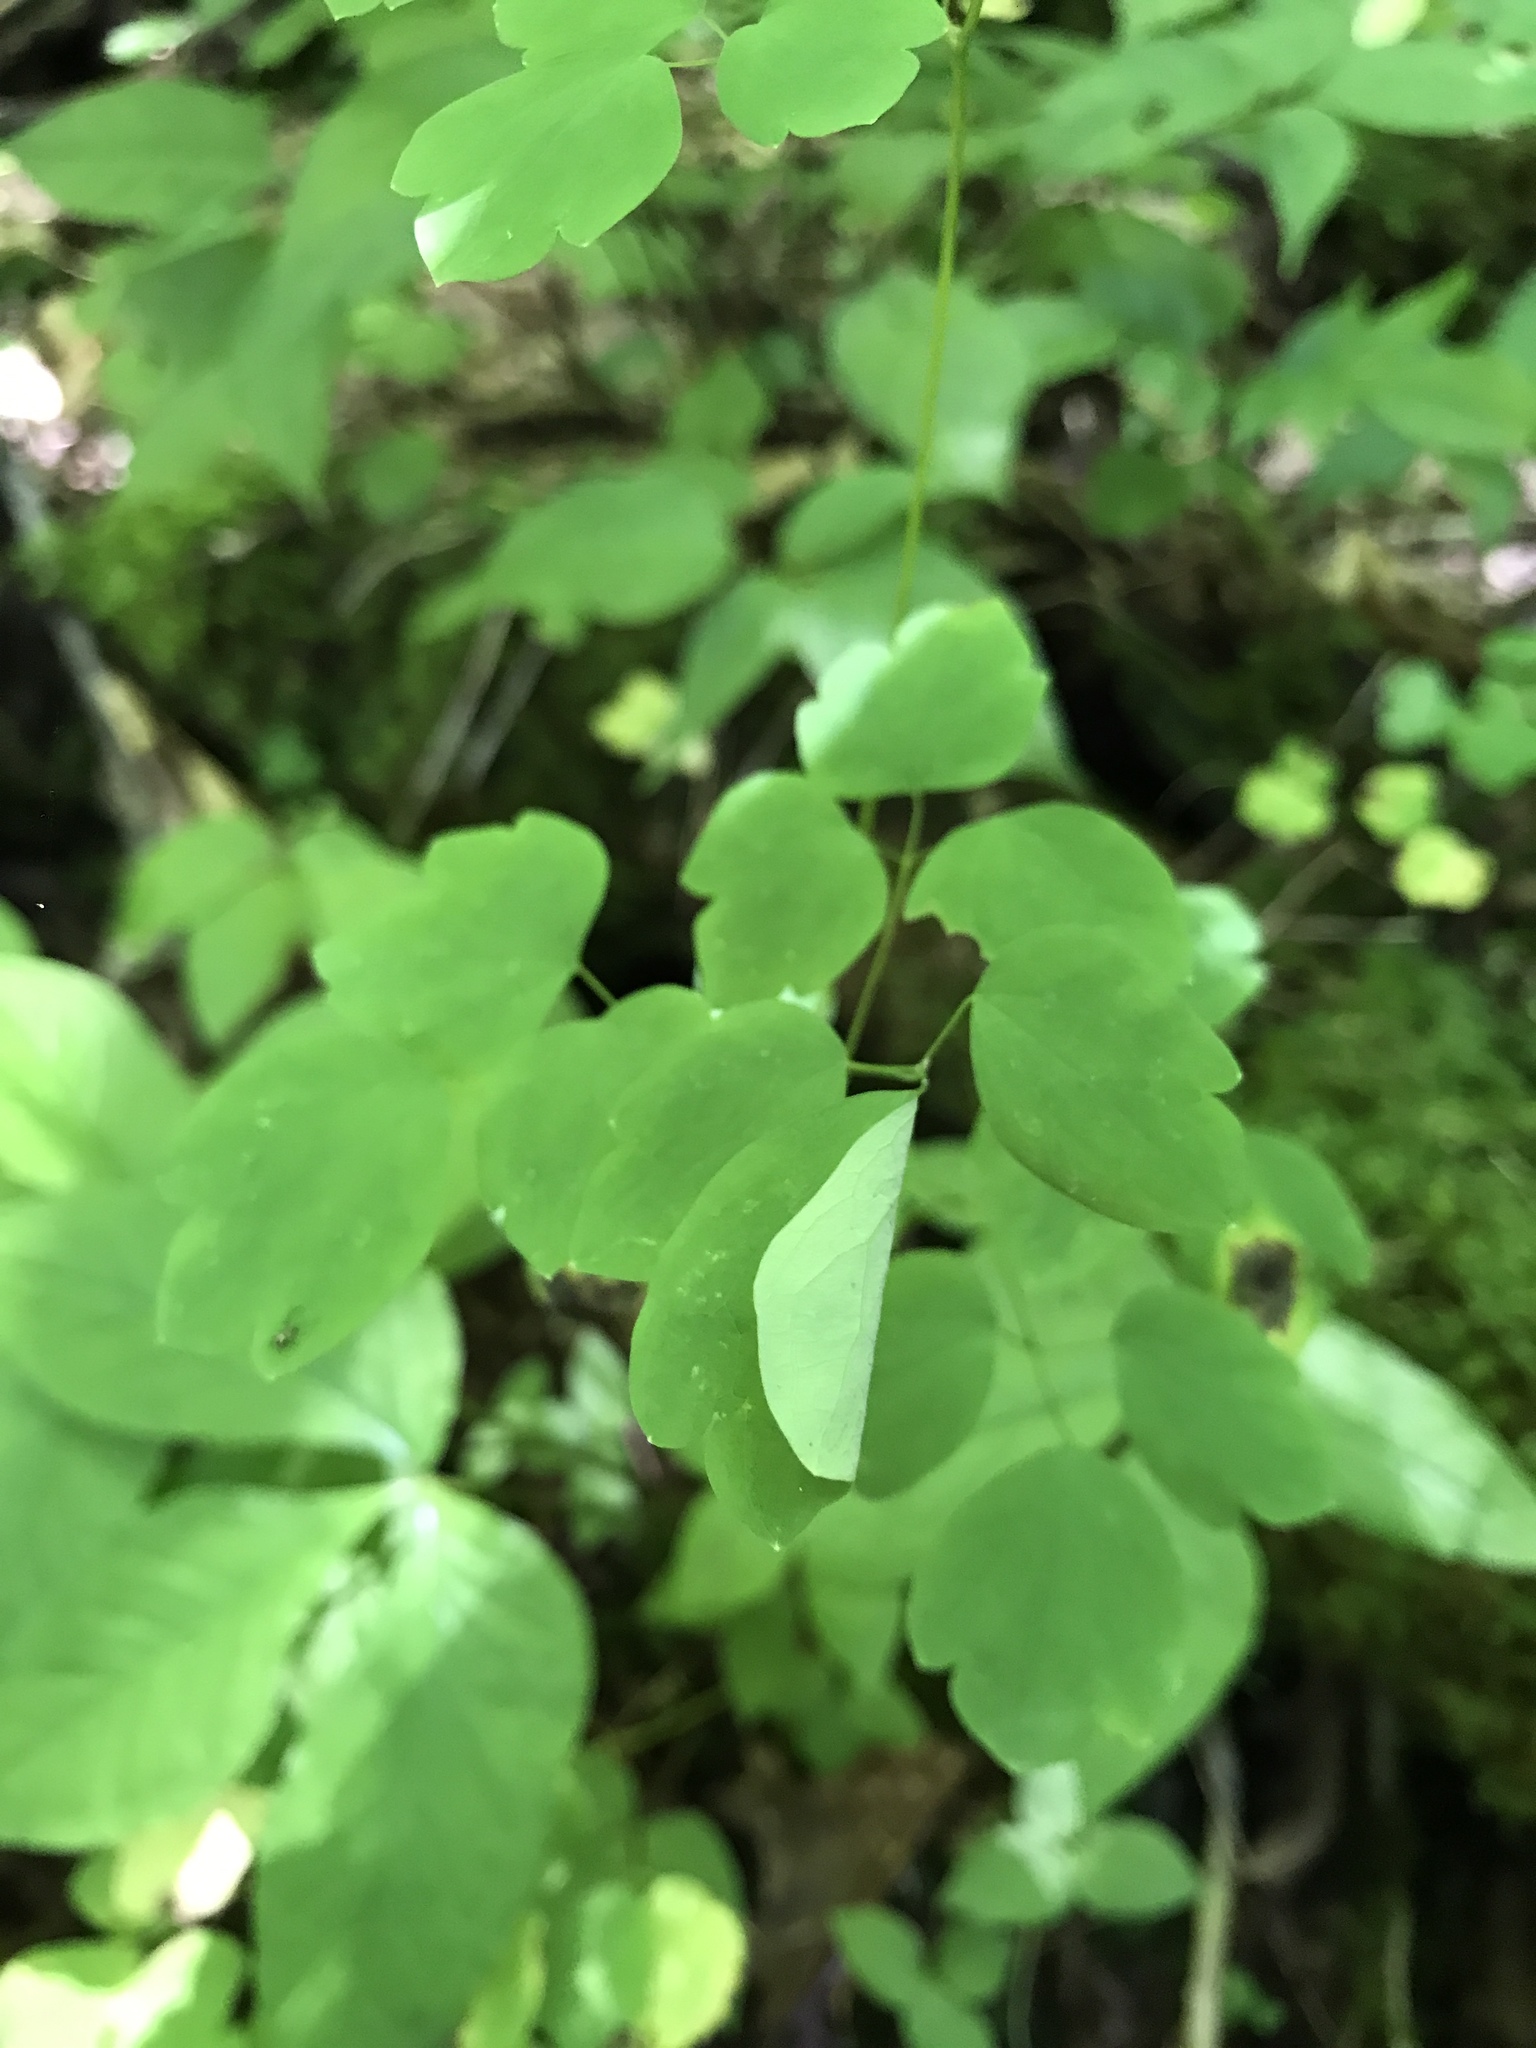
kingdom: Plantae
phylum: Tracheophyta
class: Magnoliopsida
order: Ranunculales
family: Ranunculaceae
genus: Thalictrum
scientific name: Thalictrum clavatum
